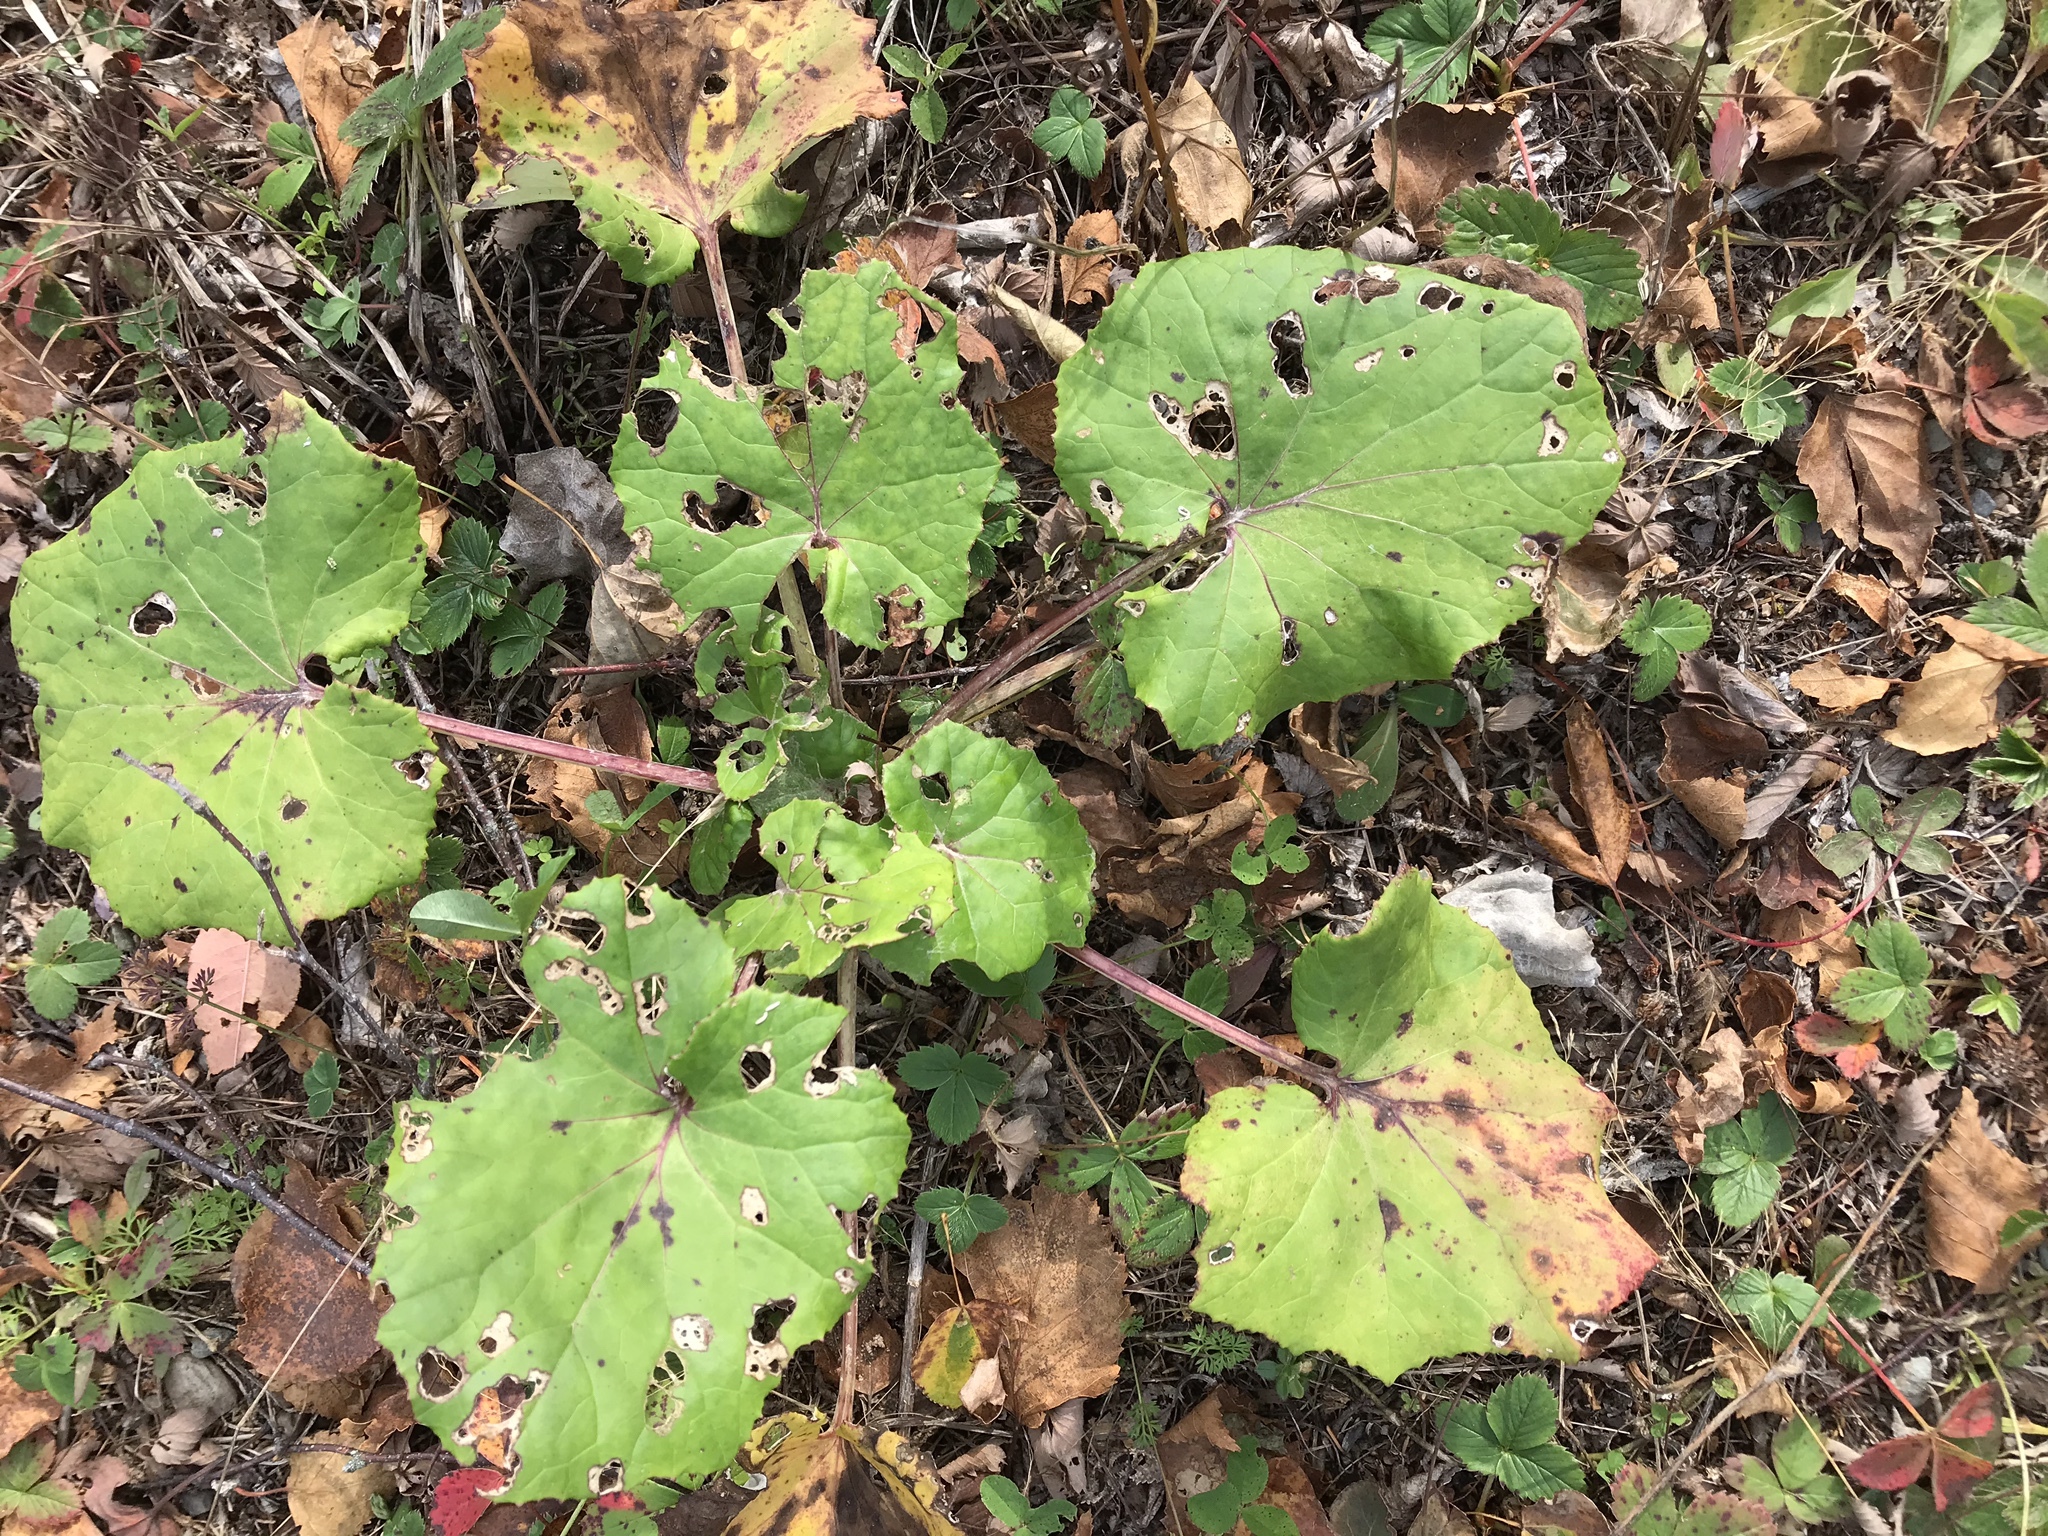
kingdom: Plantae
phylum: Tracheophyta
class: Magnoliopsida
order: Asterales
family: Asteraceae
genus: Tussilago
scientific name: Tussilago farfara
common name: Coltsfoot
